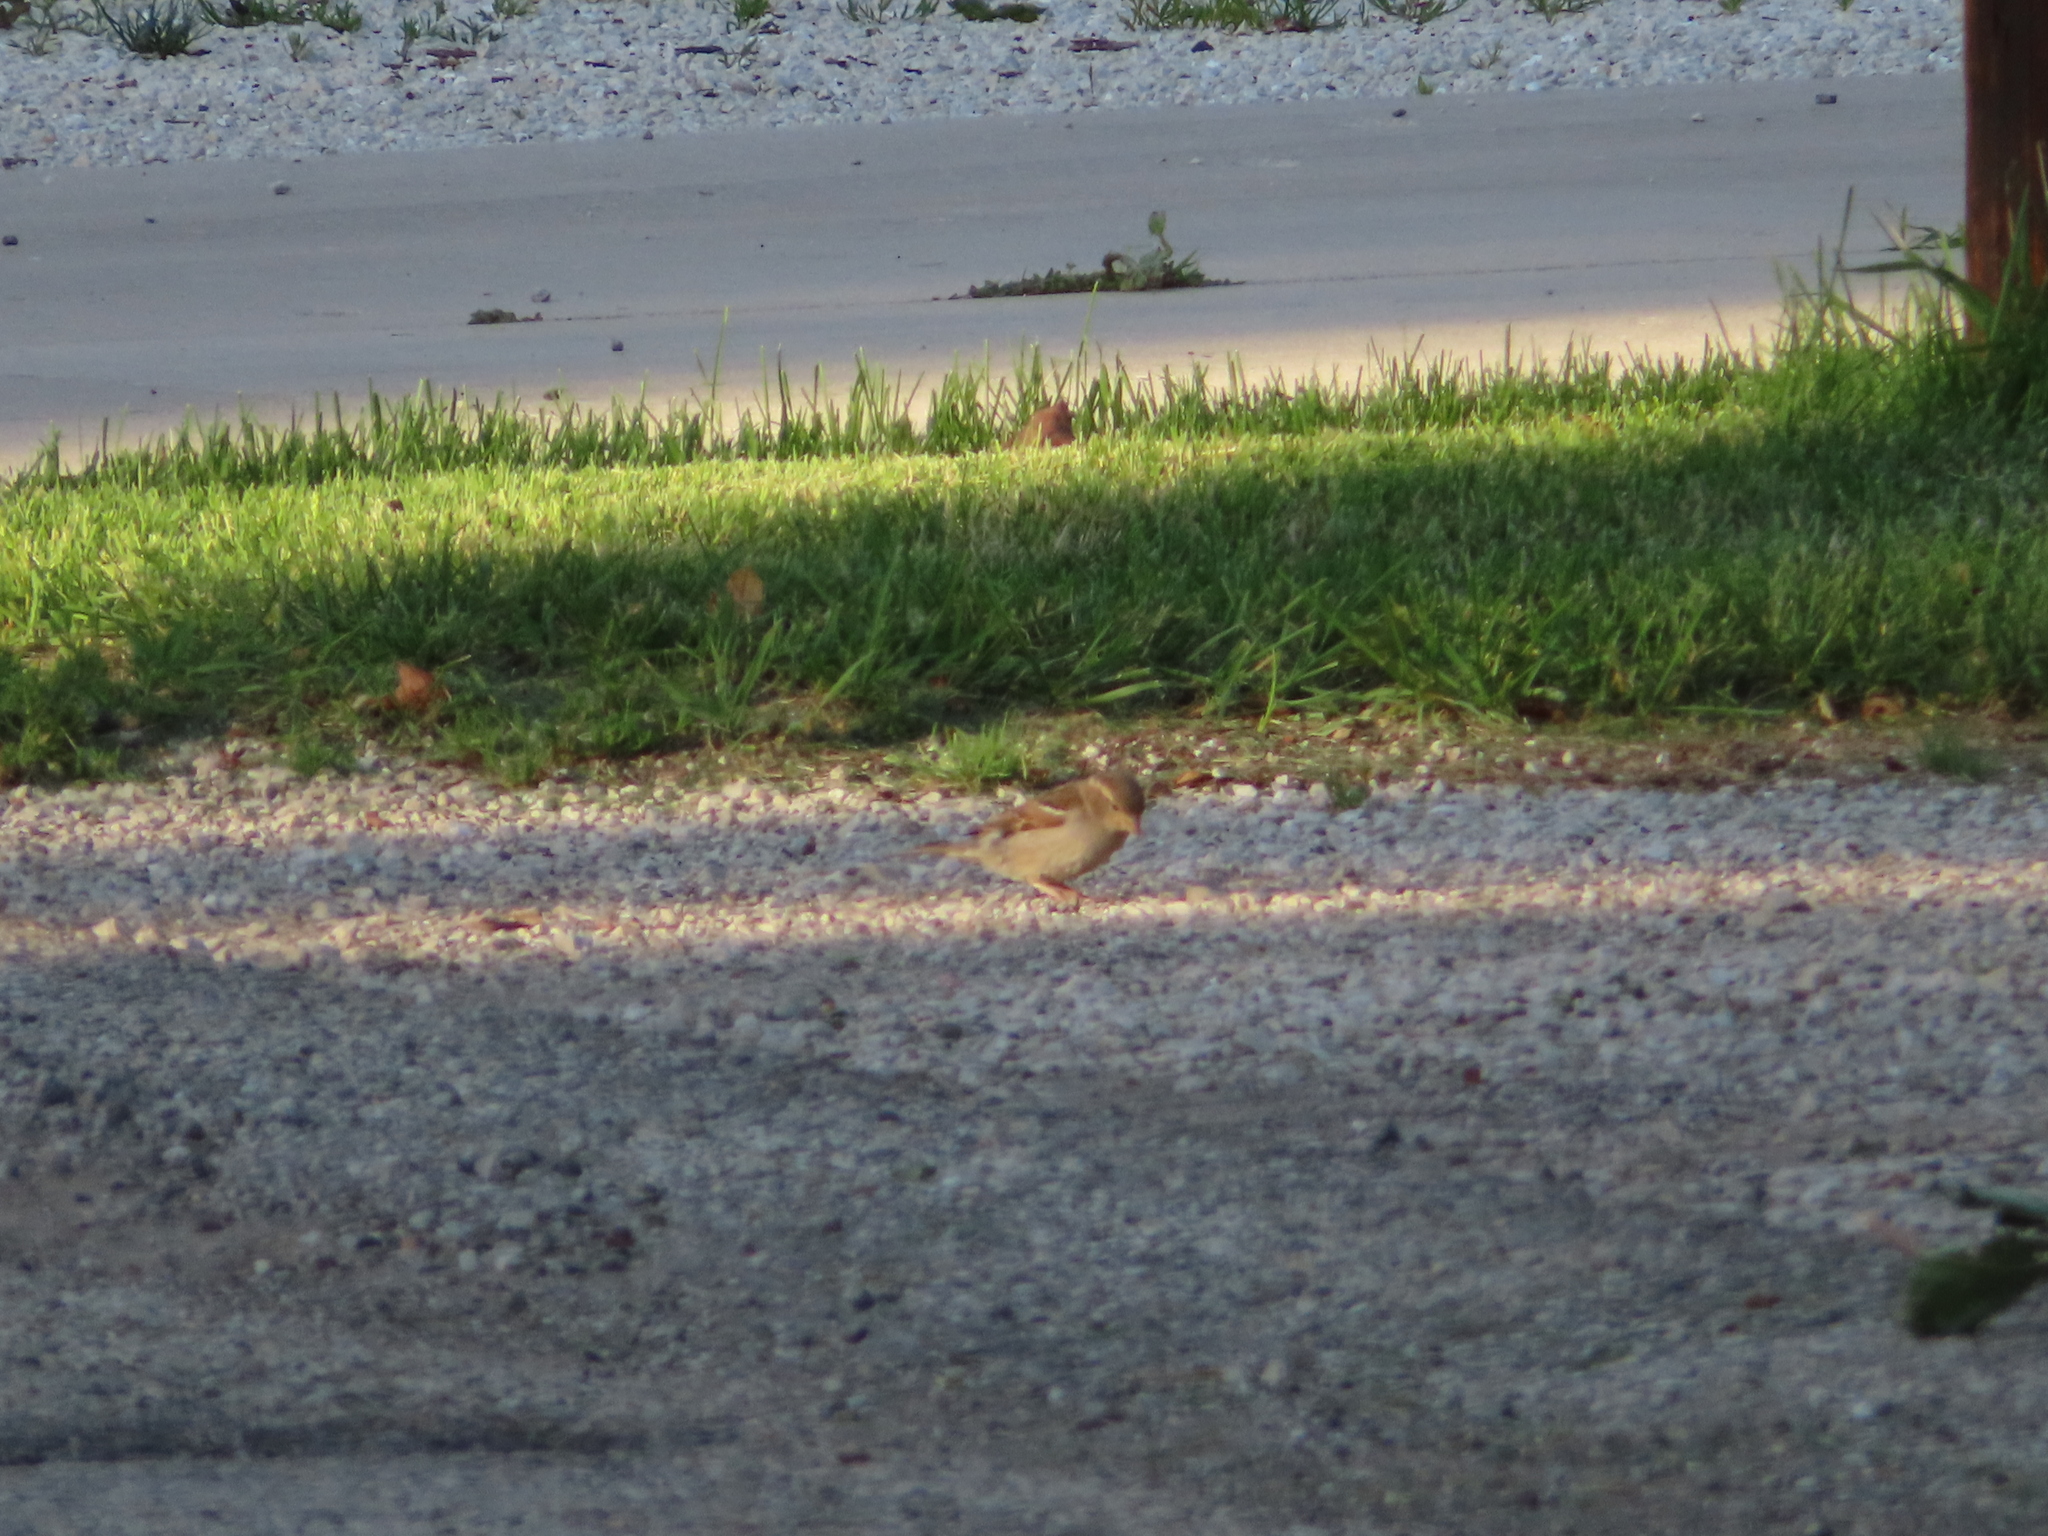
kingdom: Animalia
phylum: Chordata
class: Aves
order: Passeriformes
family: Passeridae
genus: Passer
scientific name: Passer domesticus
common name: House sparrow
